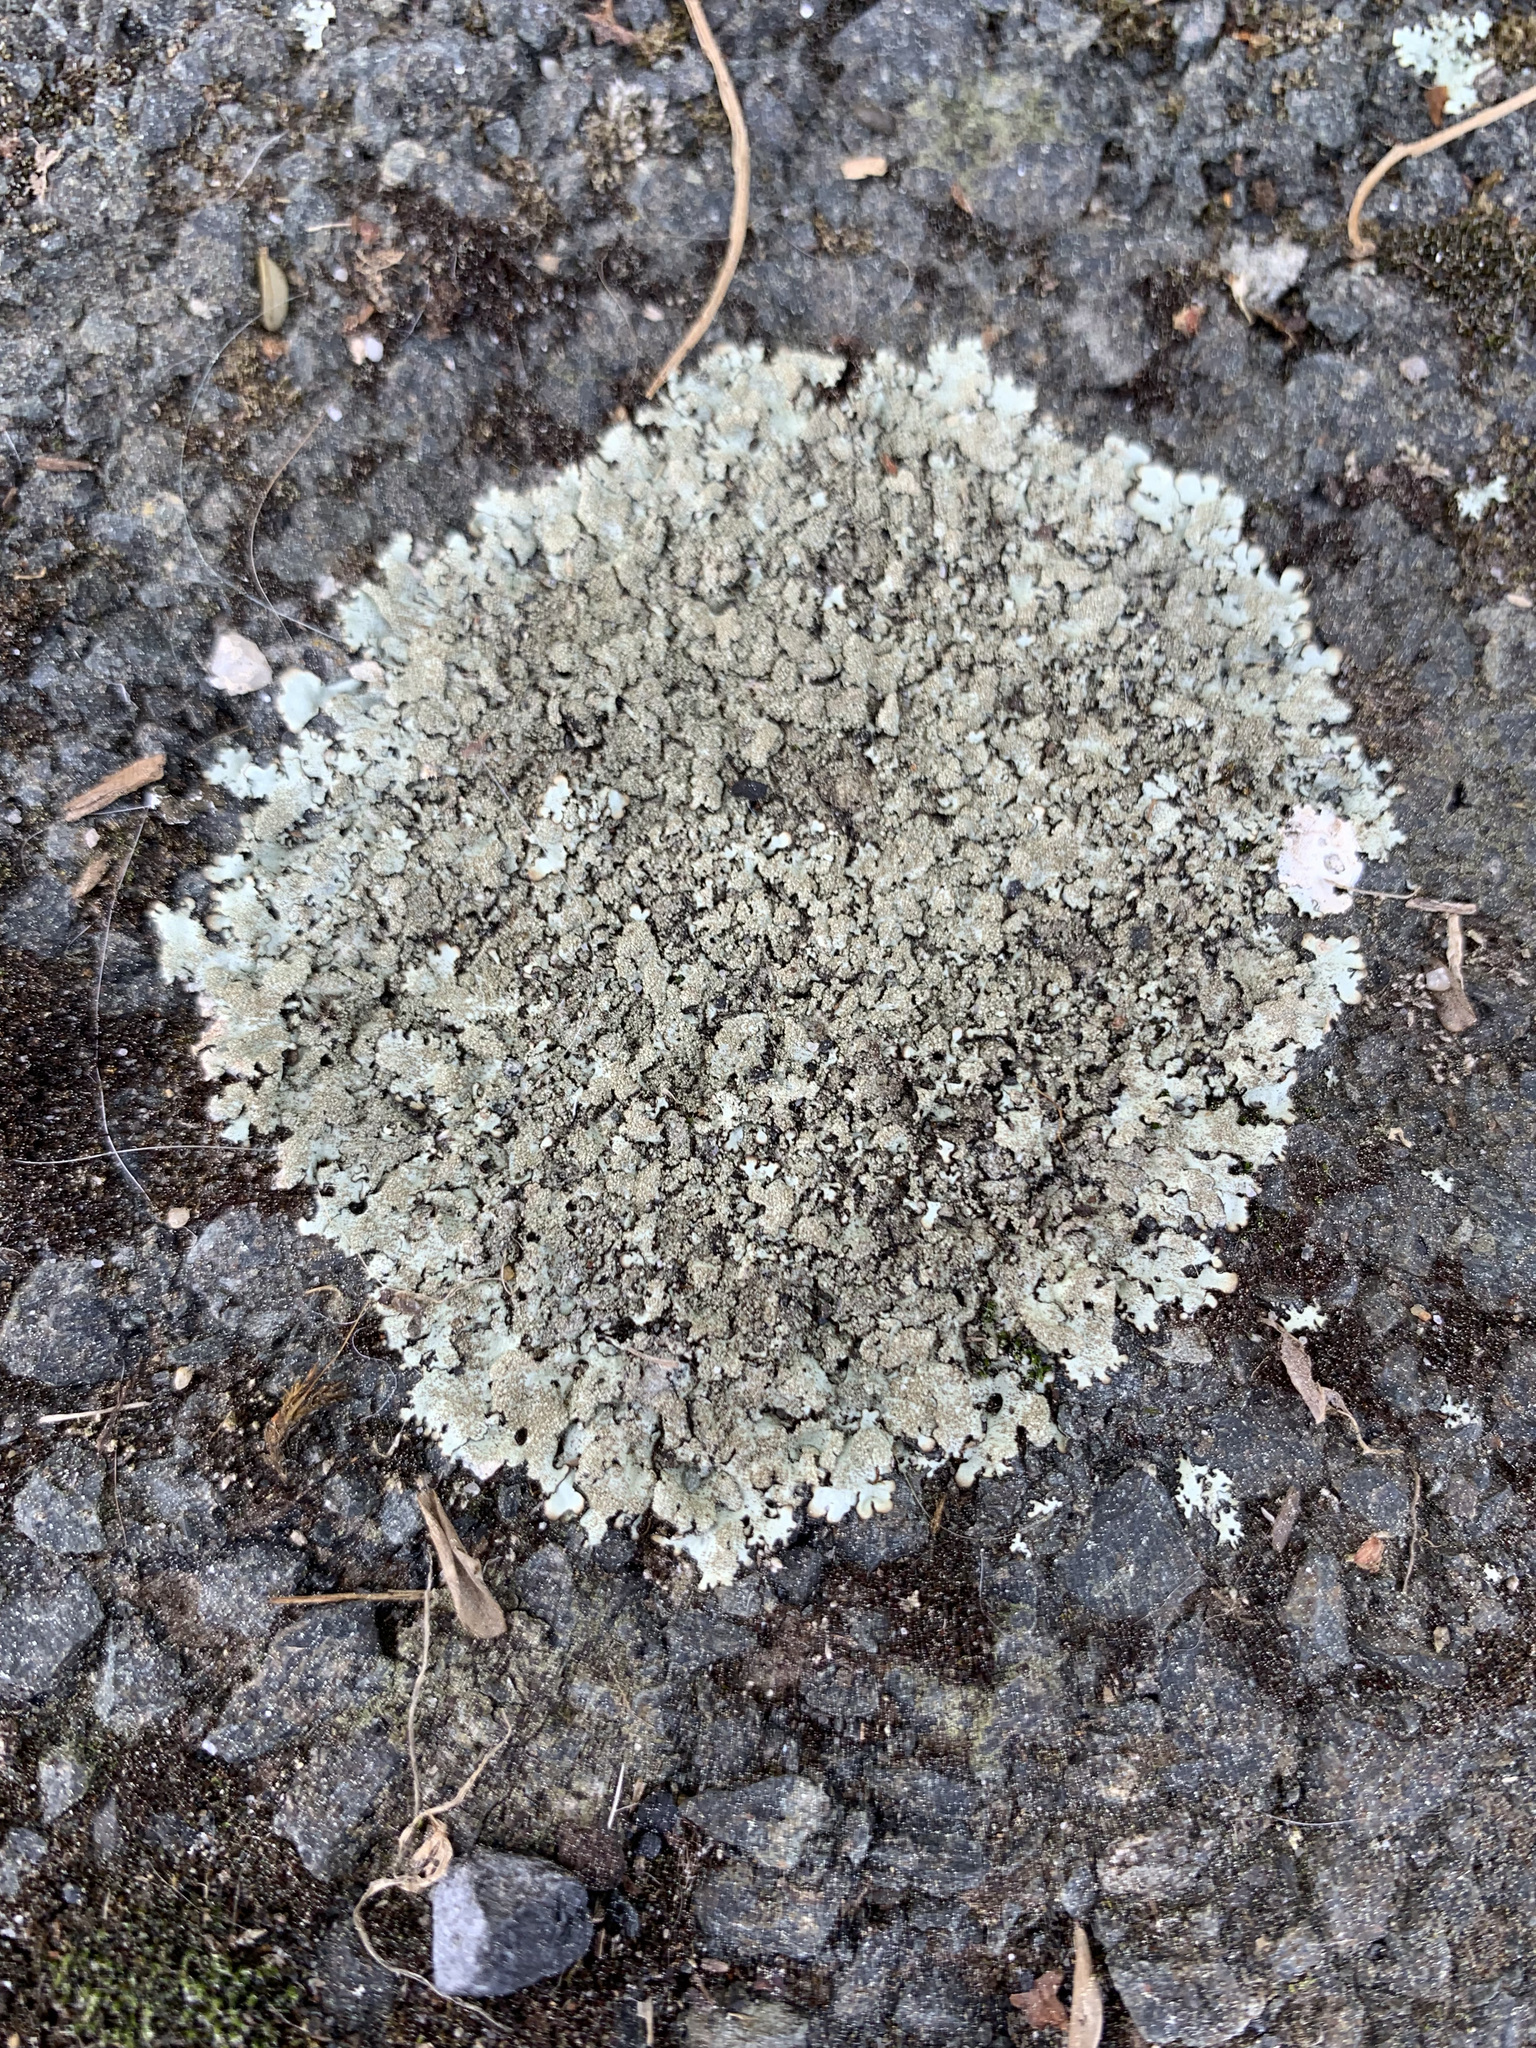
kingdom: Fungi
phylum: Ascomycota
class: Lecanoromycetes
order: Lecanorales
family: Parmeliaceae
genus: Xanthoparmelia
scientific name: Xanthoparmelia scabrosa
